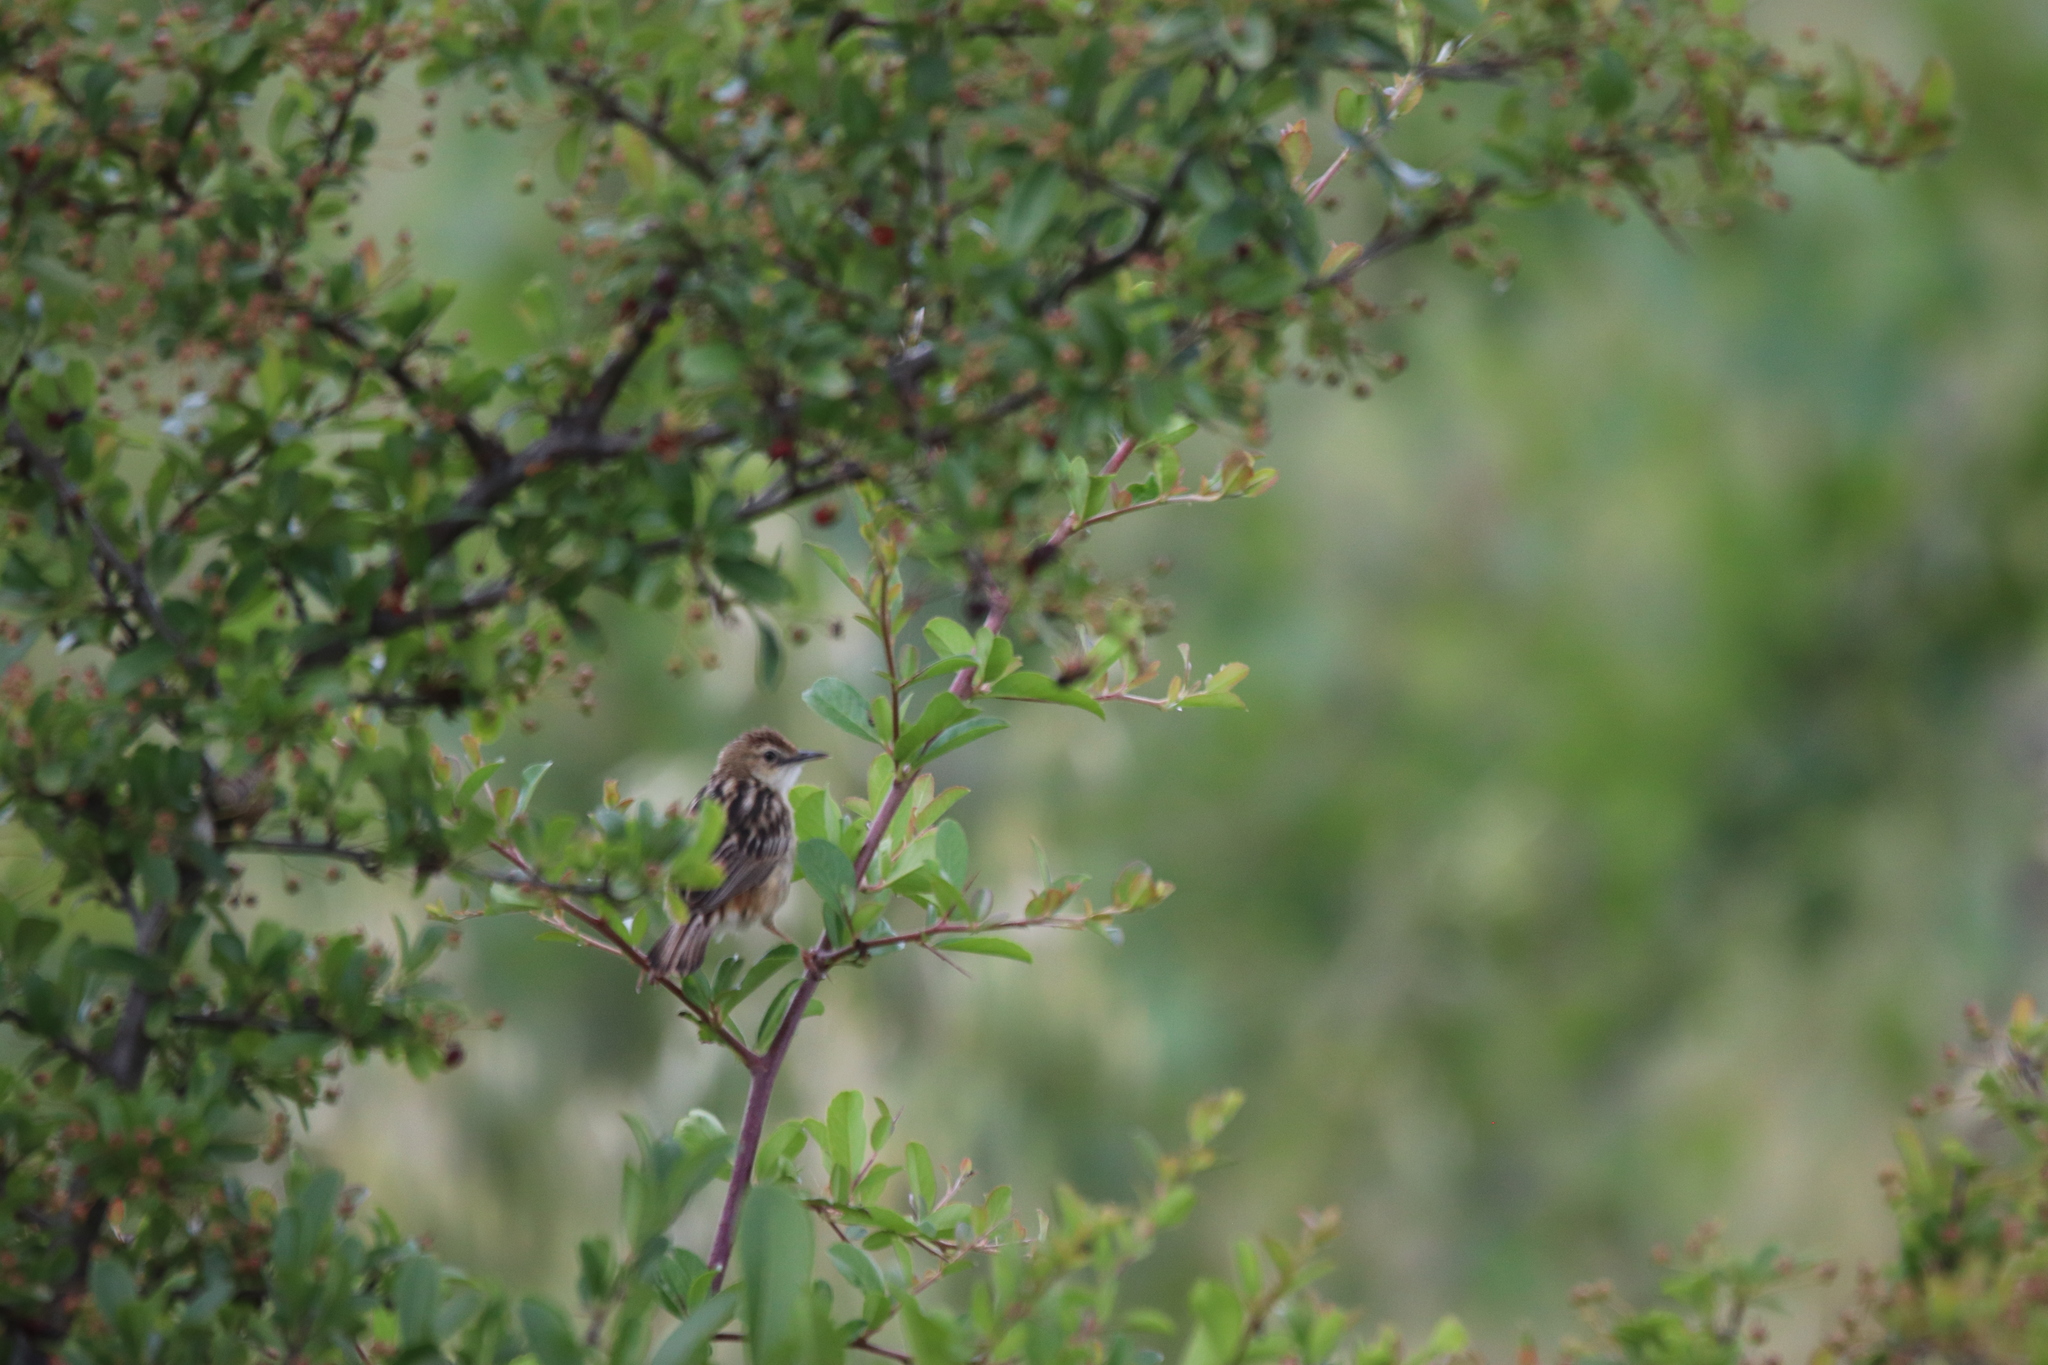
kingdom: Animalia
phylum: Chordata
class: Aves
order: Passeriformes
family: Cisticolidae
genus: Cisticola
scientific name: Cisticola juncidis
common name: Zitting cisticola
